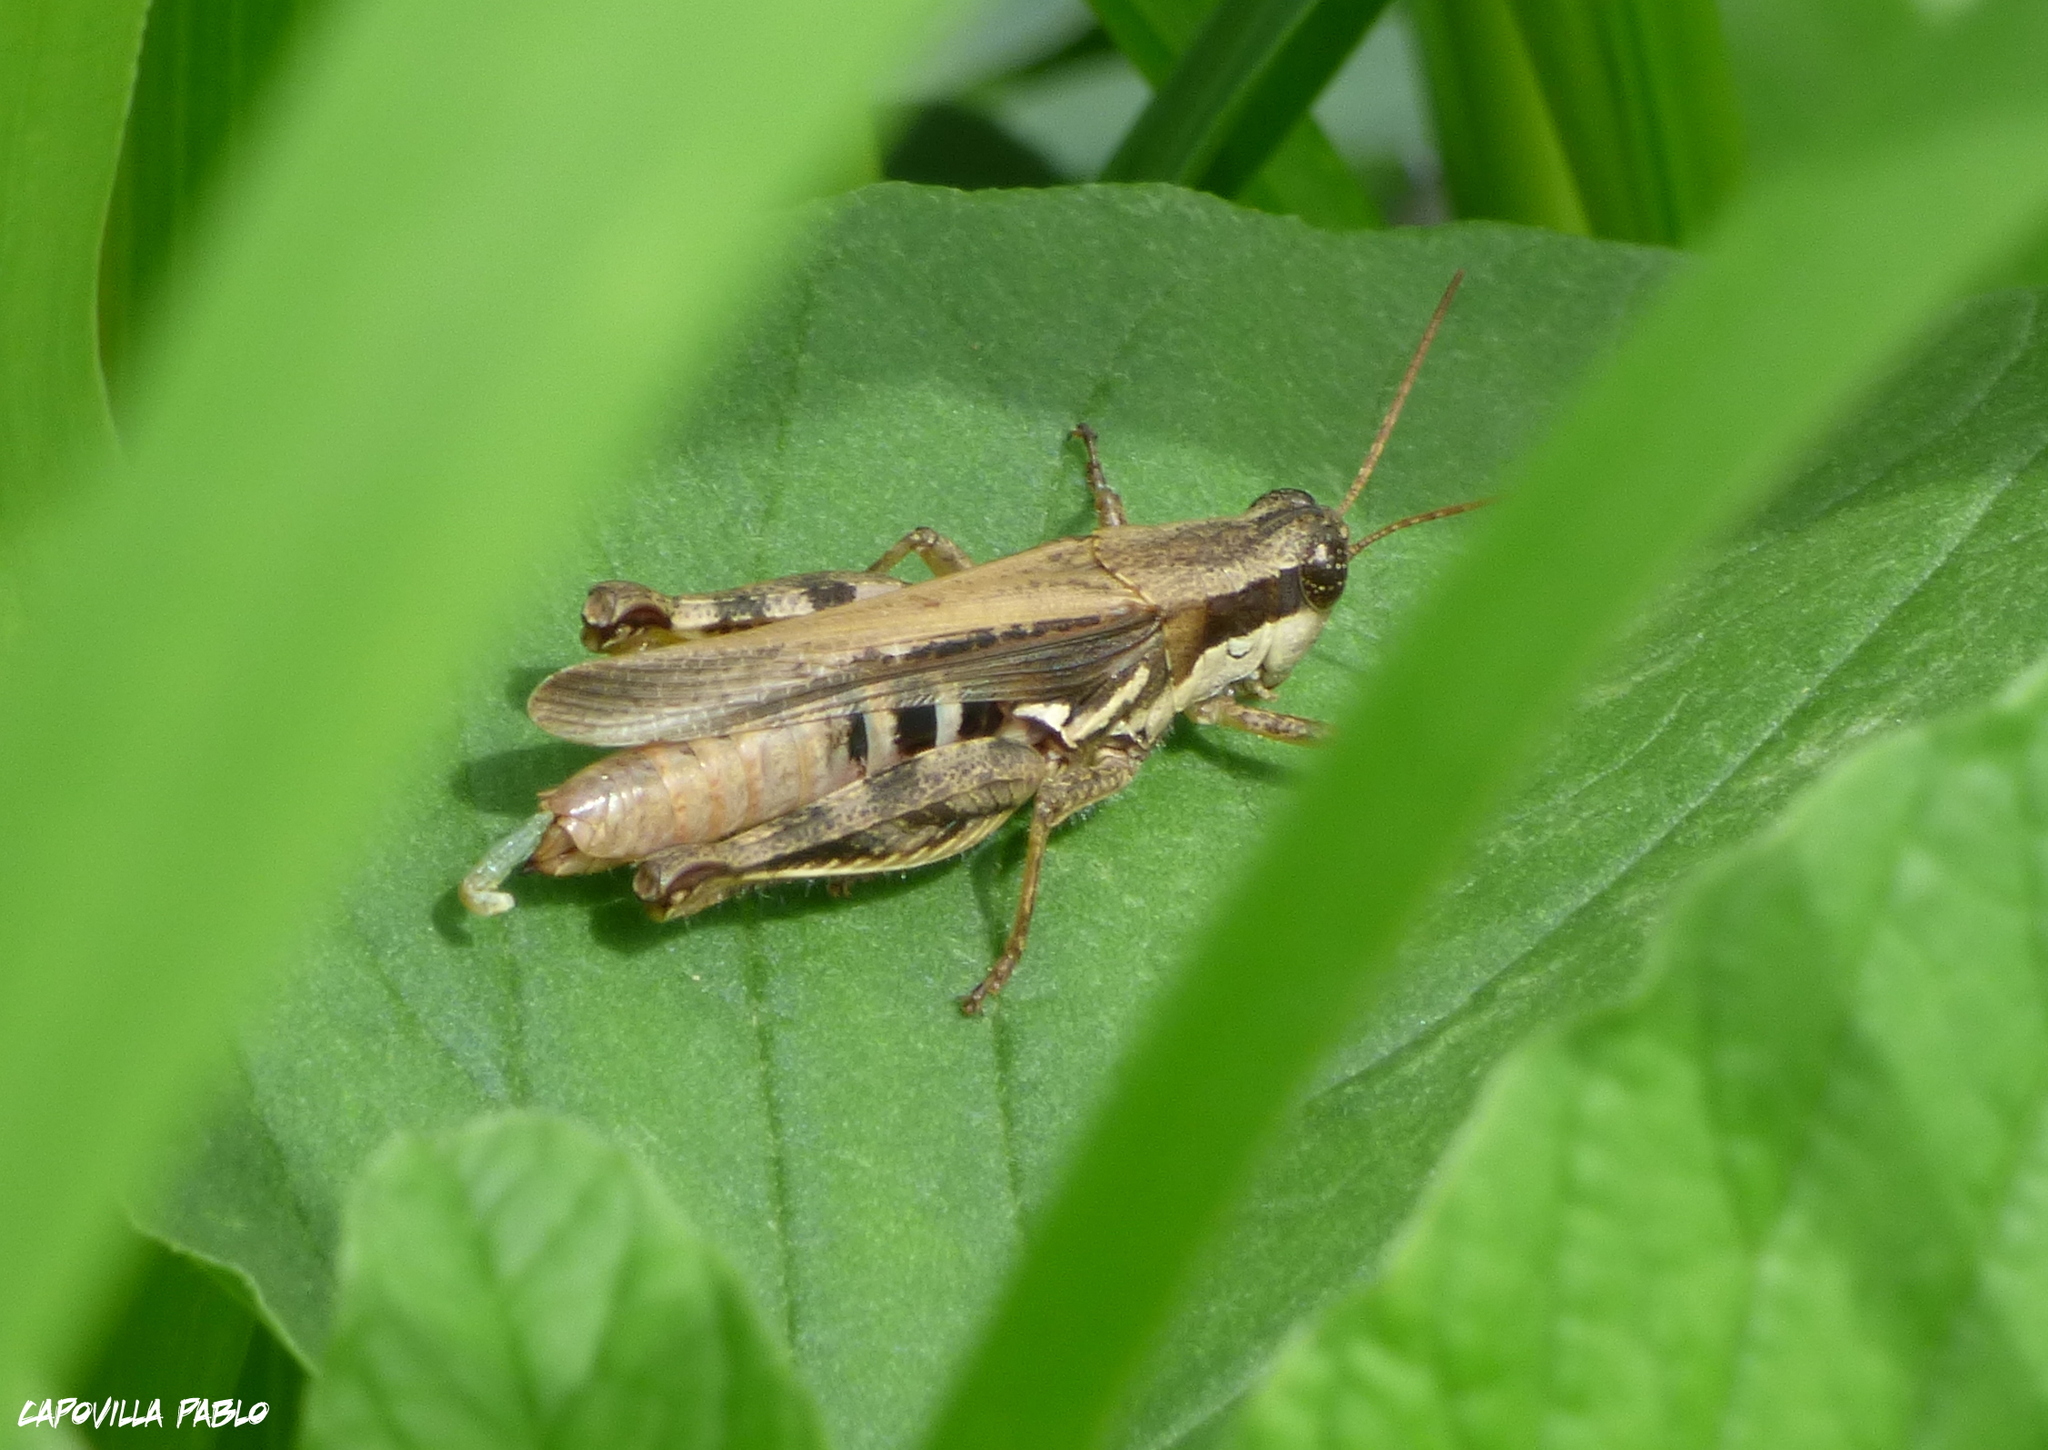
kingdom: Animalia
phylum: Arthropoda
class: Insecta
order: Orthoptera
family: Acrididae
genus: Dichroplus
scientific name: Dichroplus exilis
